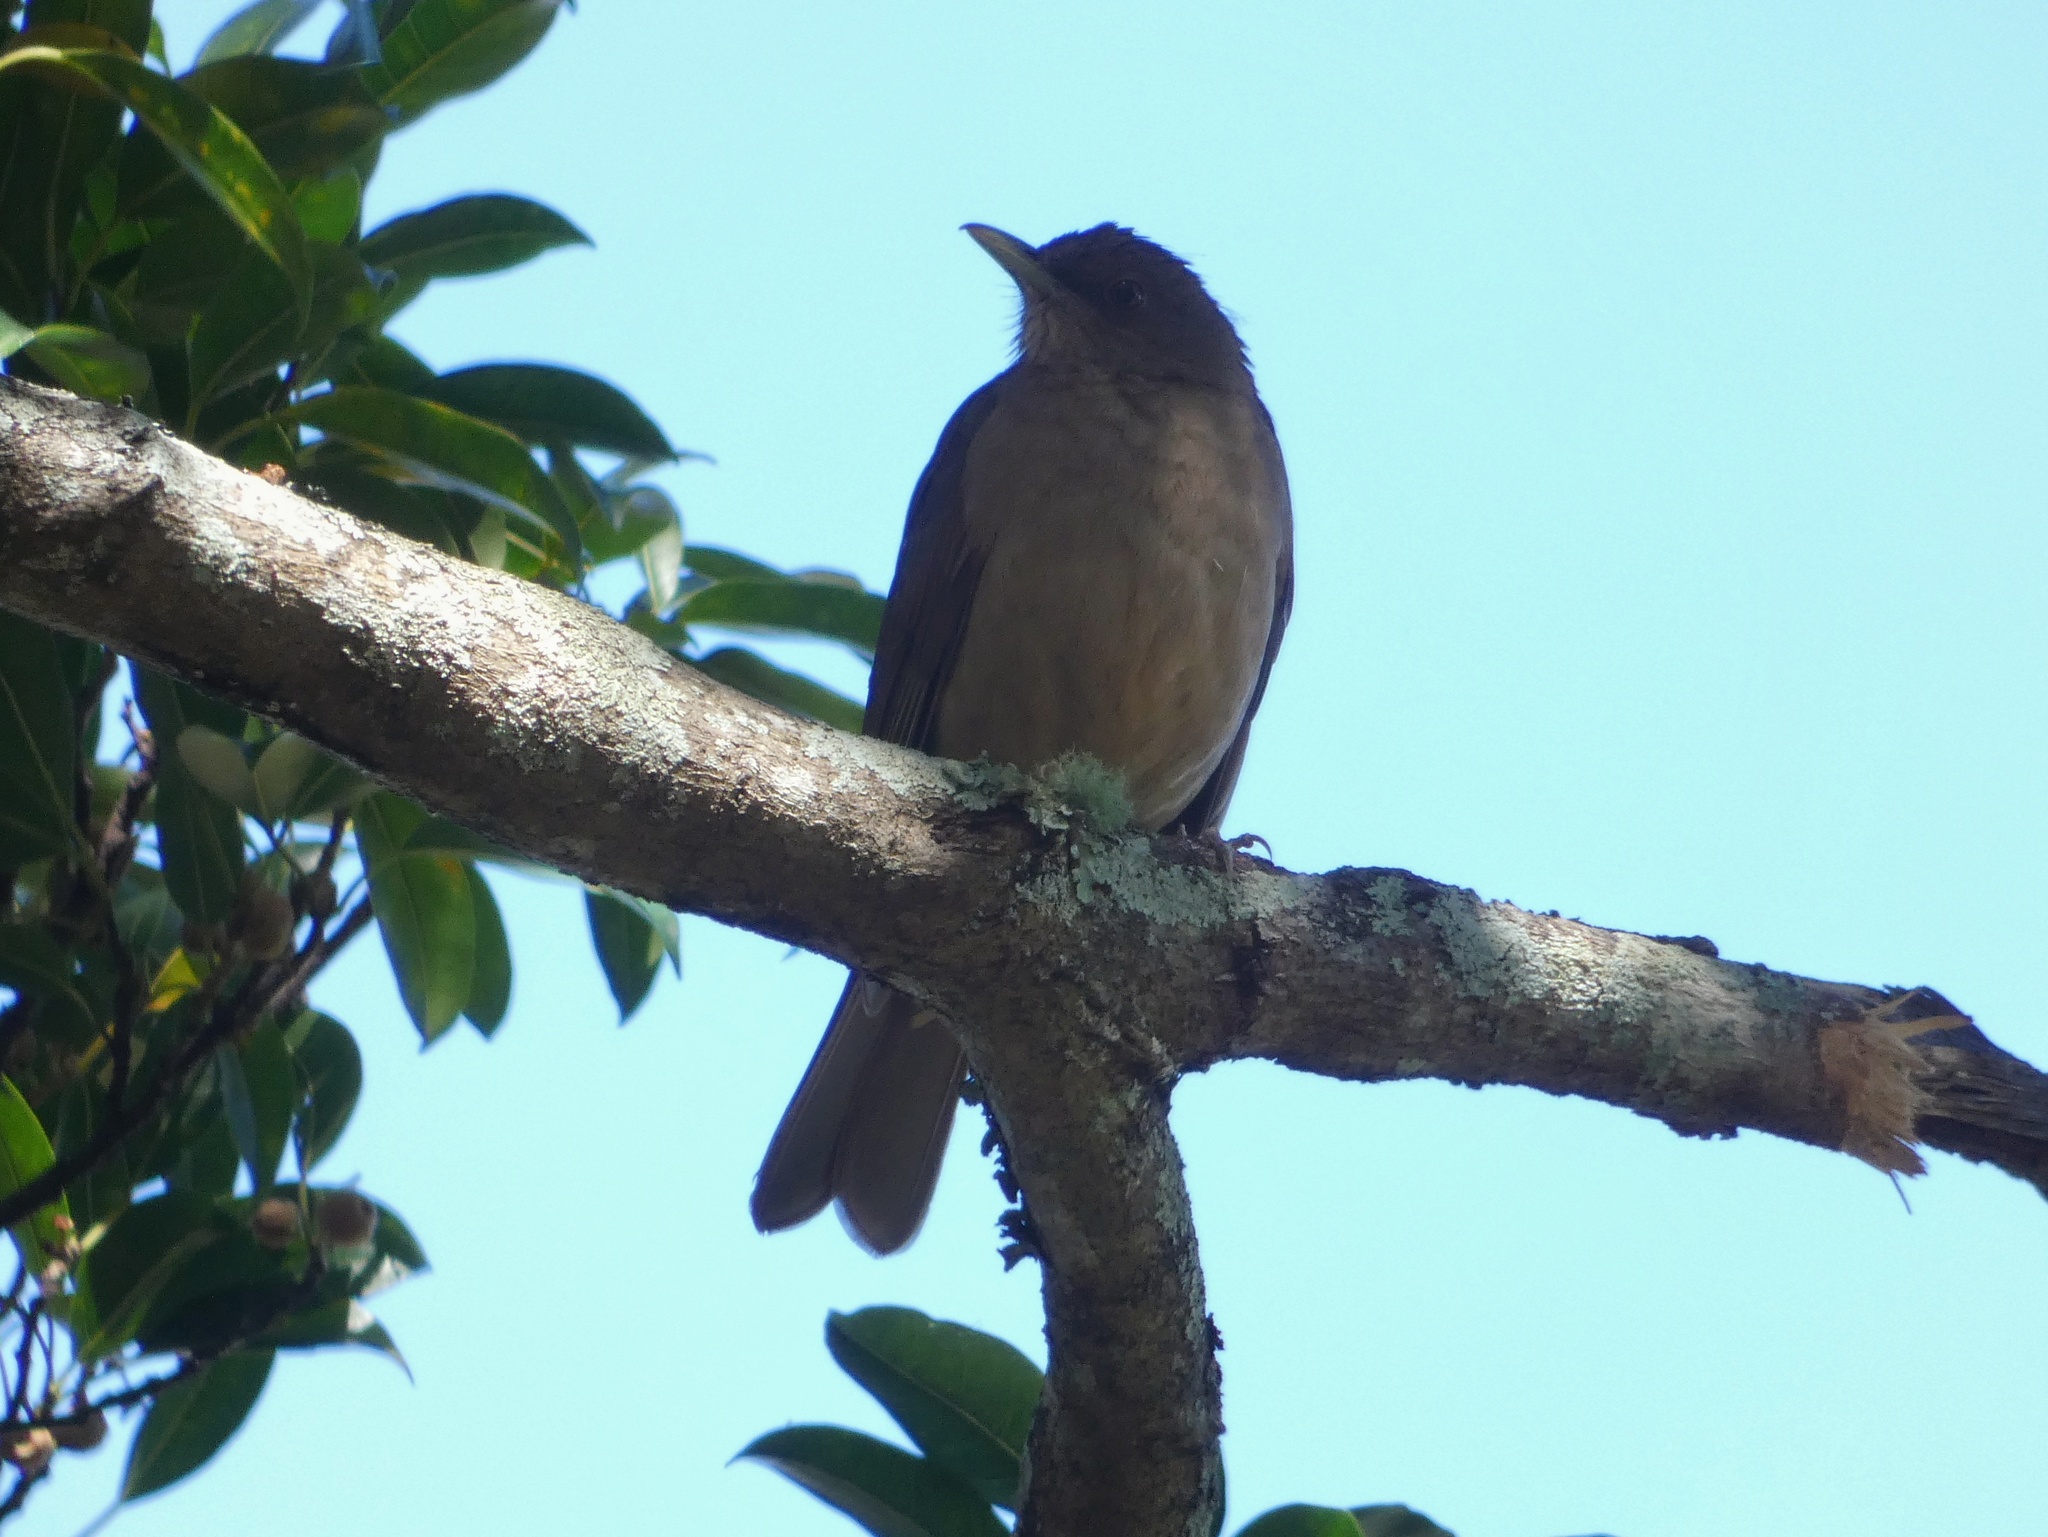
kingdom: Animalia
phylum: Chordata
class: Aves
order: Passeriformes
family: Turdidae
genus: Turdus
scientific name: Turdus grayi
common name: Clay-colored thrush
